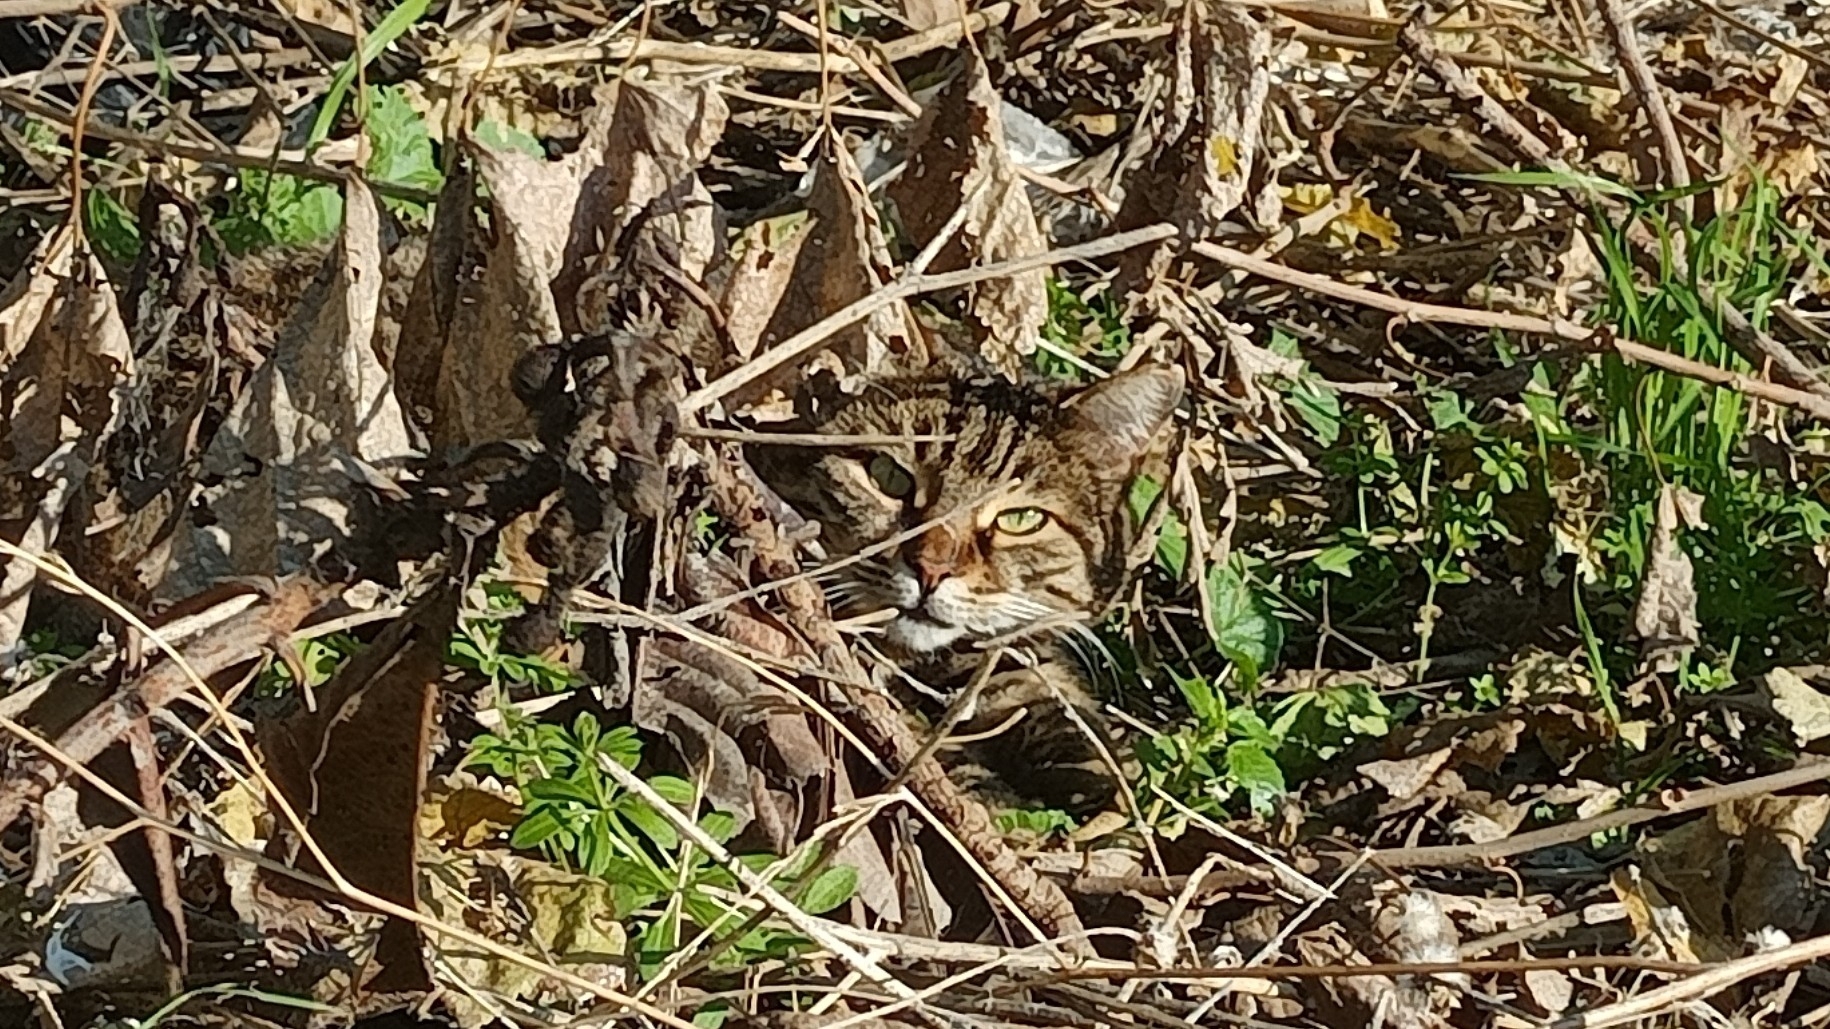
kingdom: Animalia
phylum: Chordata
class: Mammalia
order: Carnivora
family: Felidae
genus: Felis
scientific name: Felis catus
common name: Domestic cat
